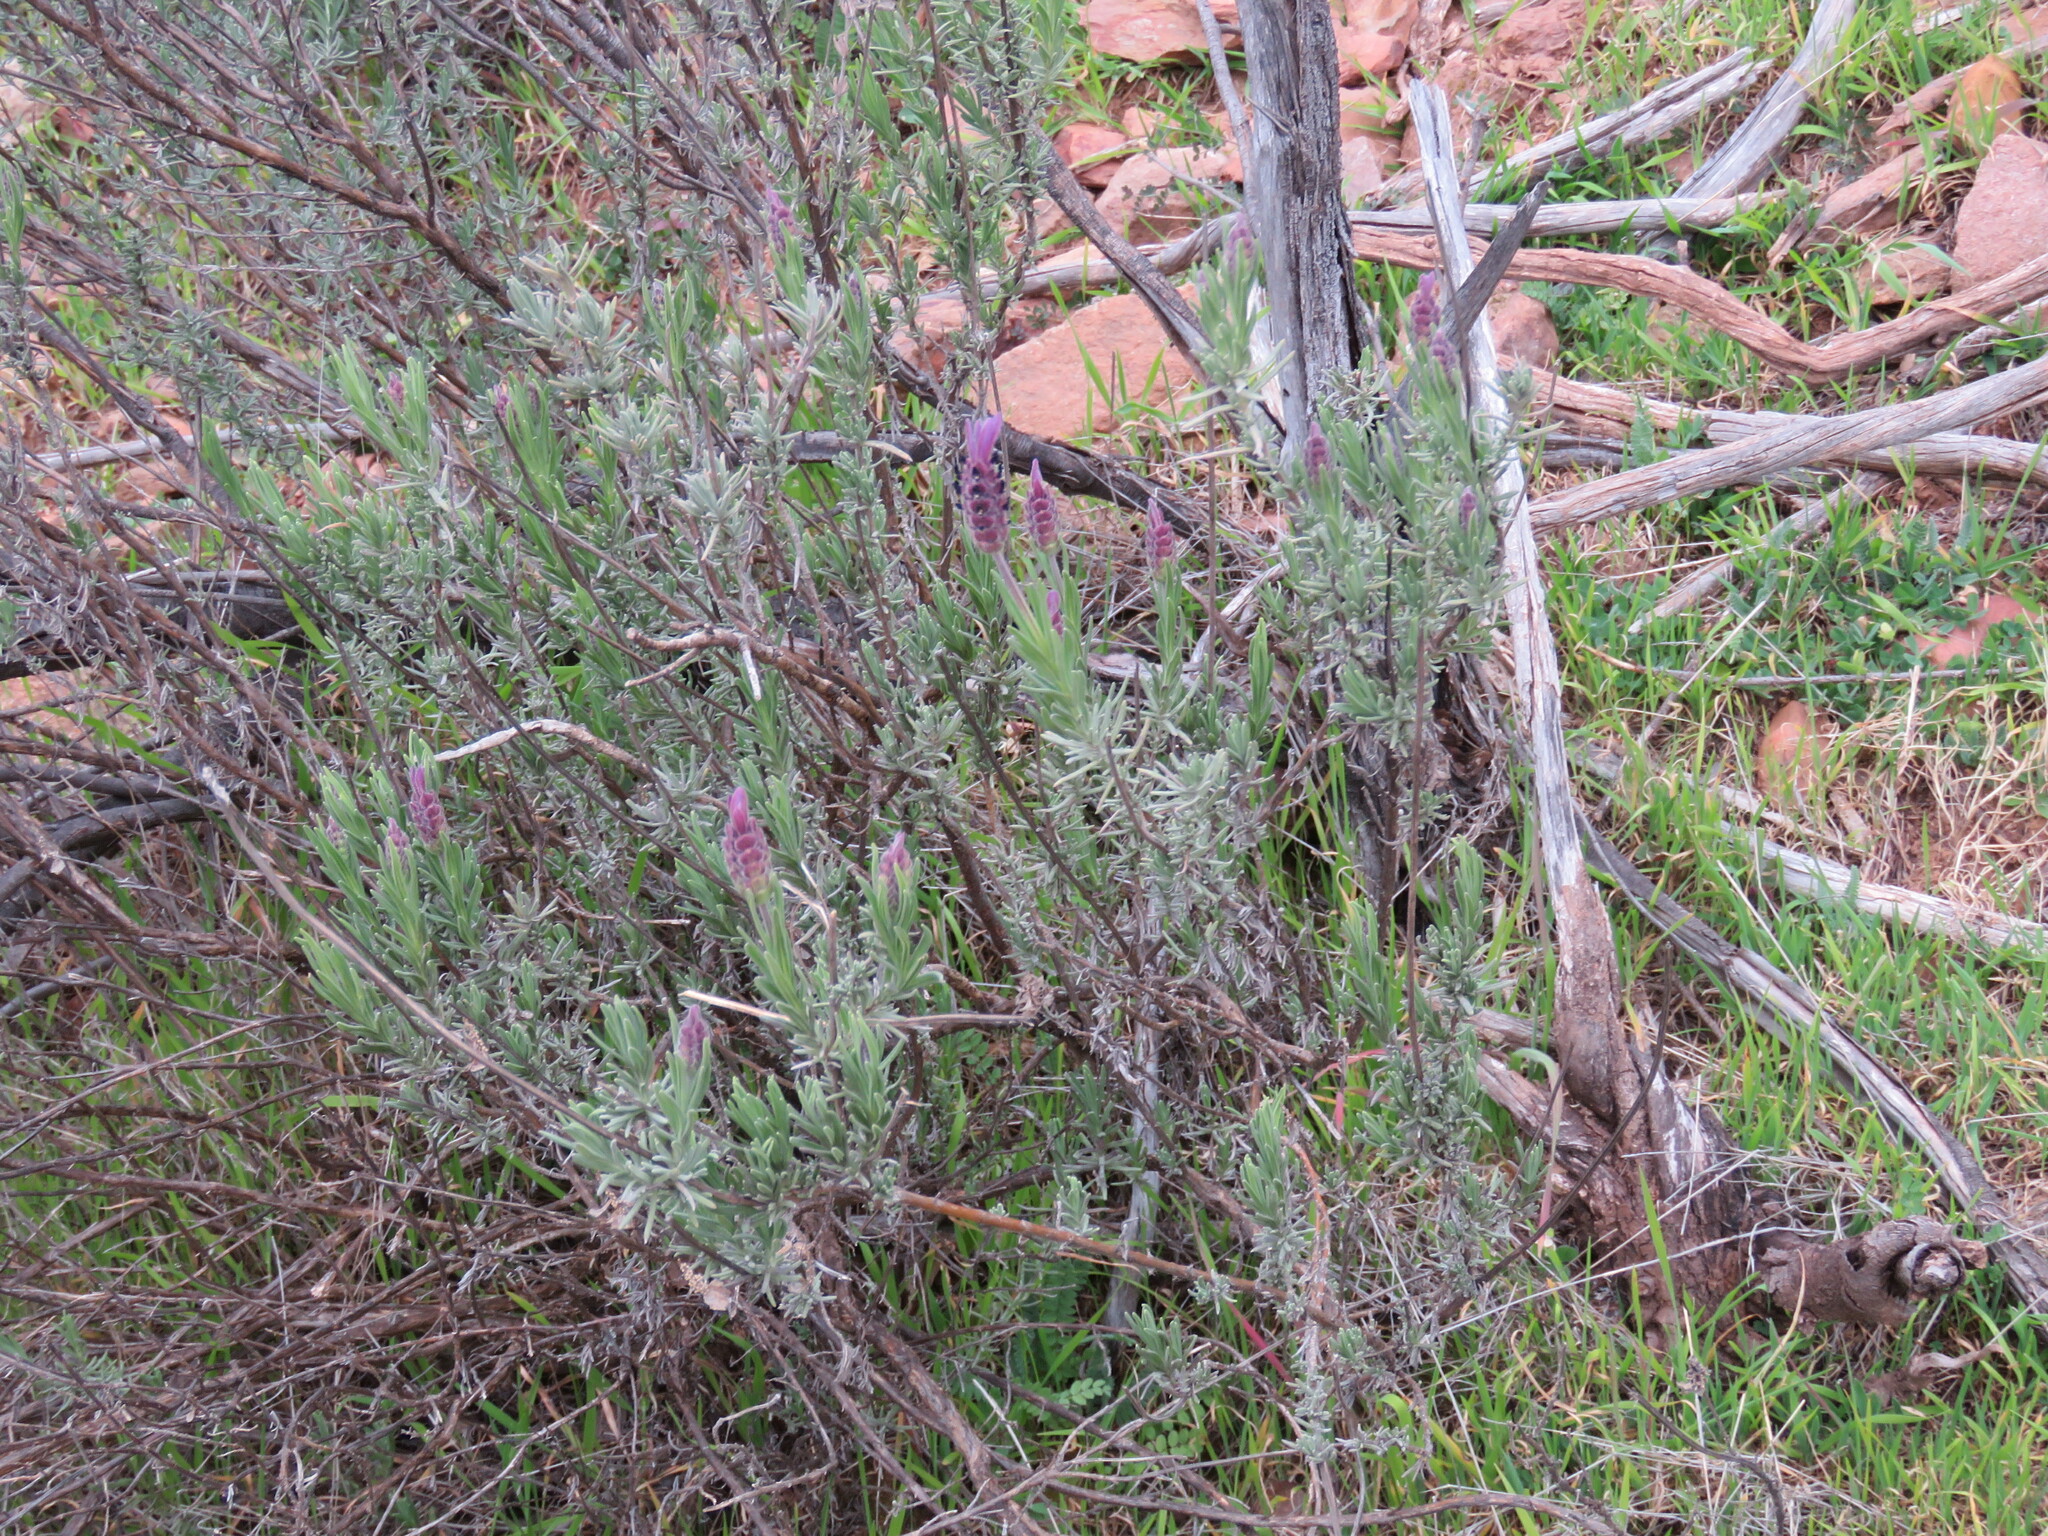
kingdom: Plantae
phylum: Tracheophyta
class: Magnoliopsida
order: Lamiales
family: Lamiaceae
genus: Lavandula
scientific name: Lavandula pedunculata
